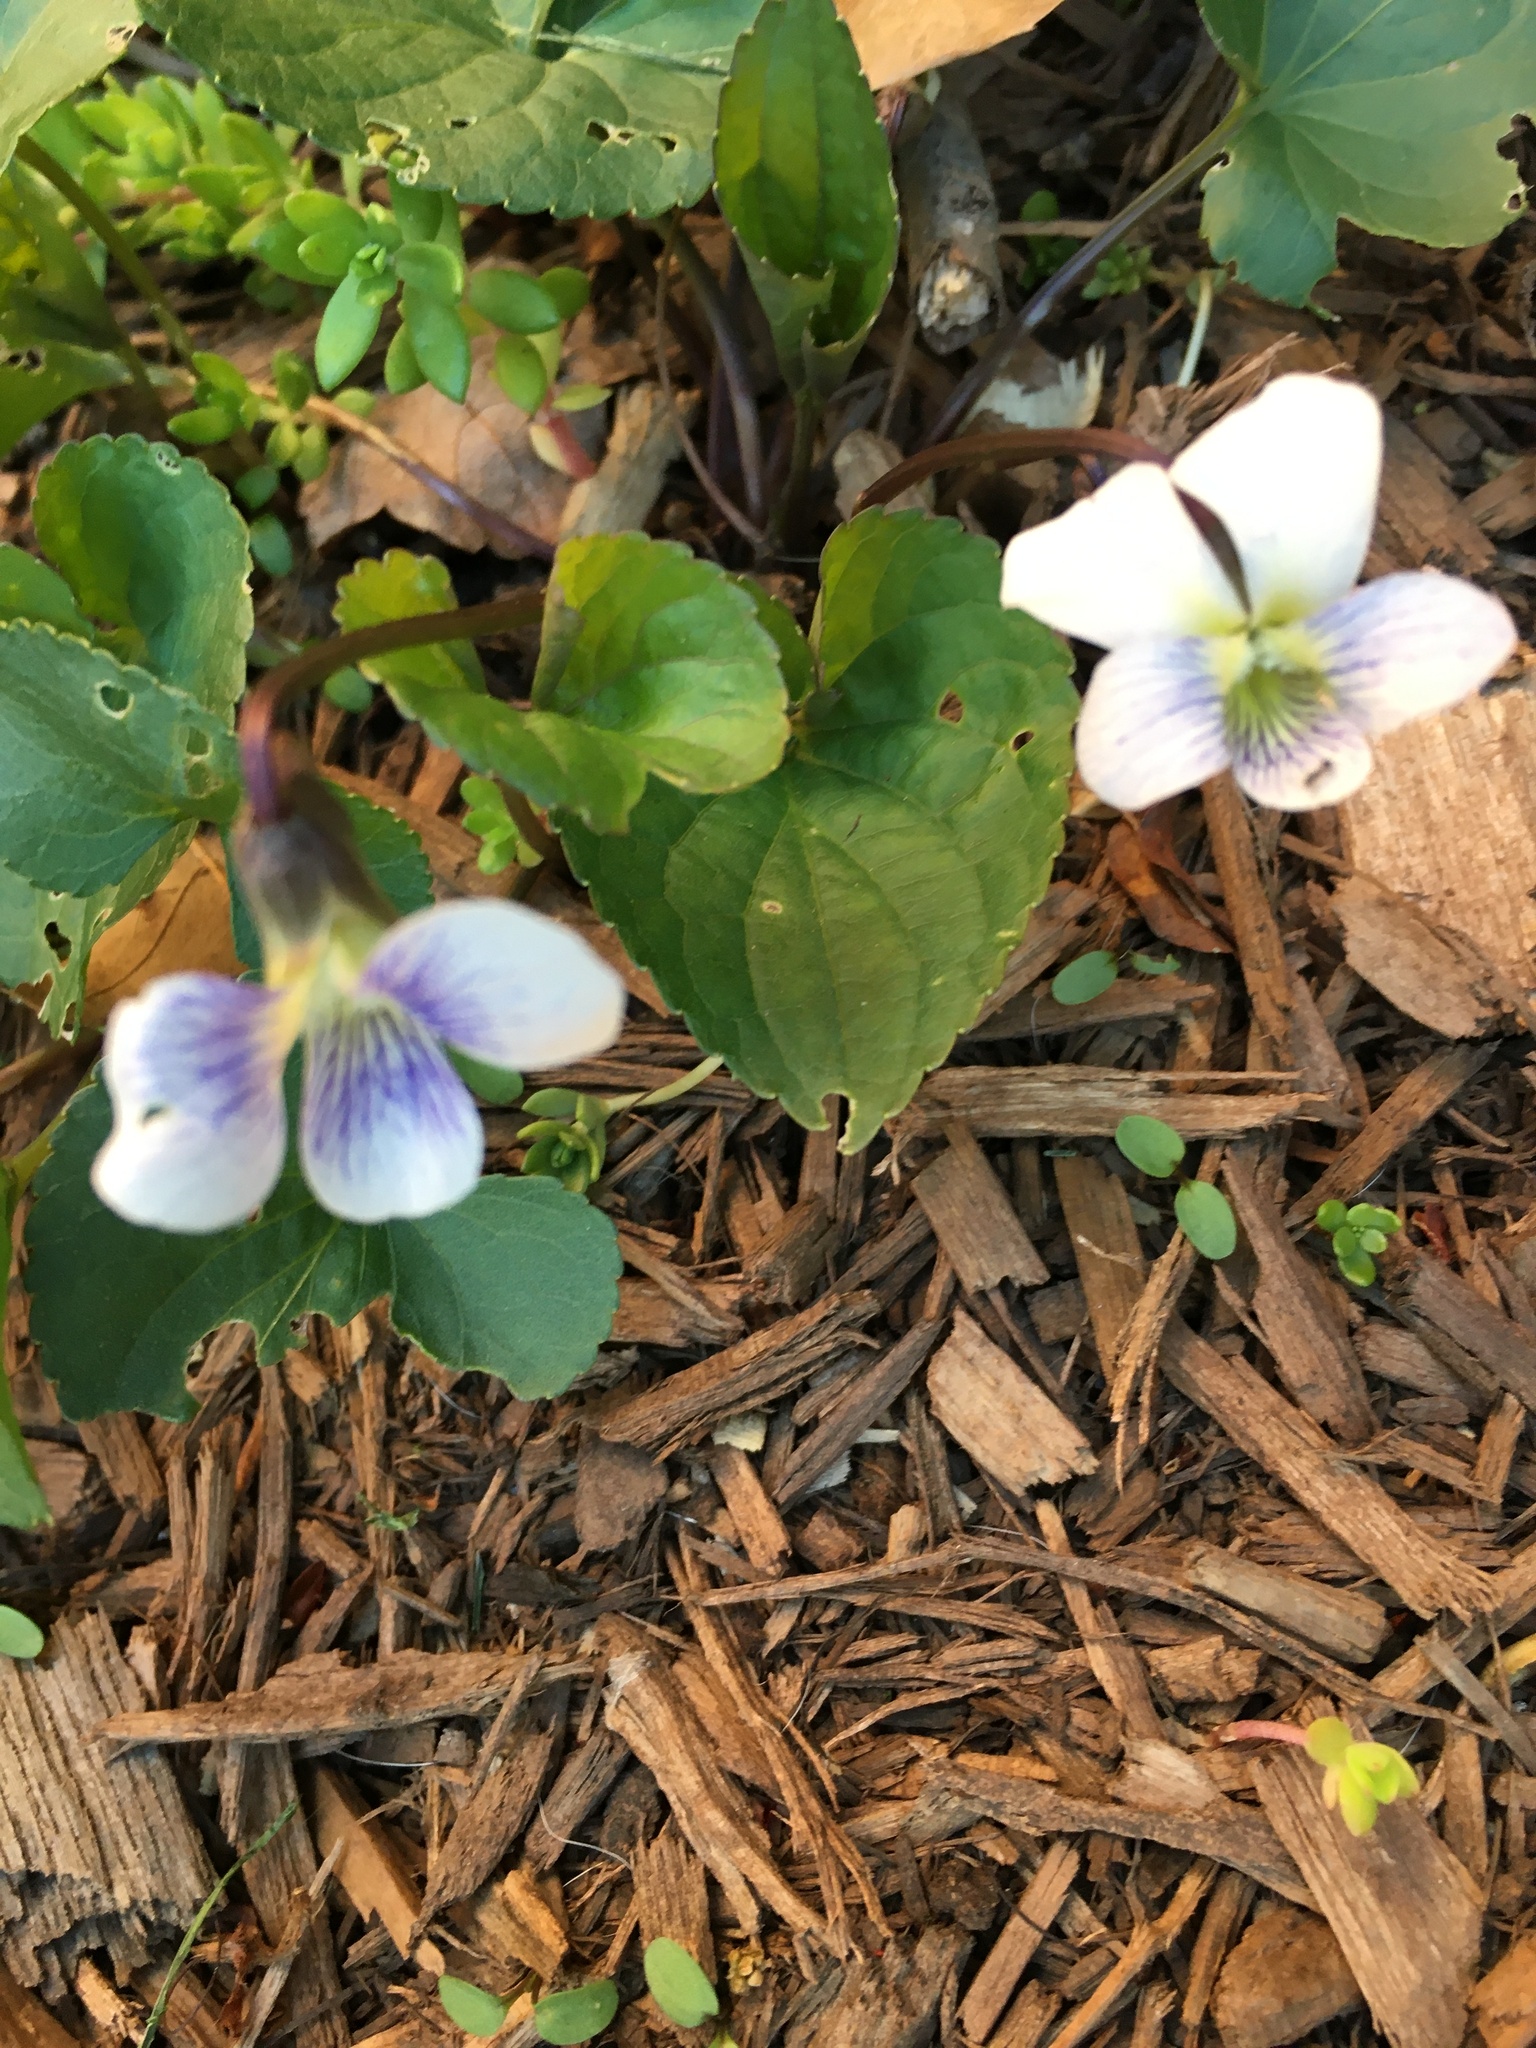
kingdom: Plantae
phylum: Tracheophyta
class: Magnoliopsida
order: Malpighiales
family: Violaceae
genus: Viola
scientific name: Viola sororia
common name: Dooryard violet
